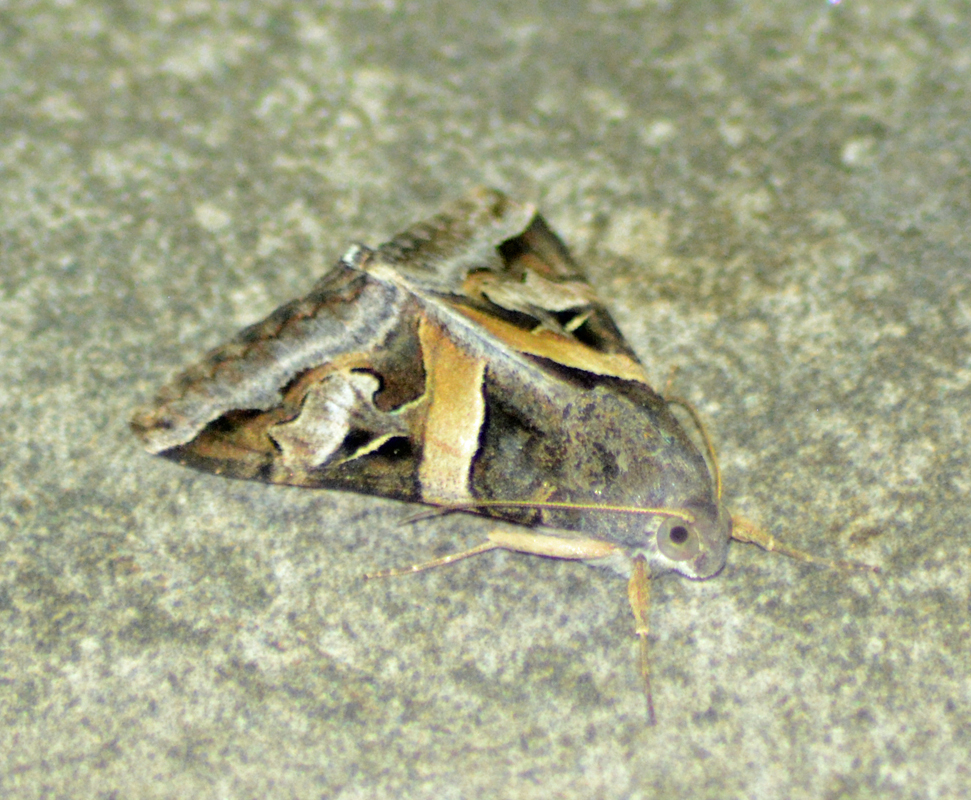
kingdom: Animalia
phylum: Arthropoda
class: Insecta
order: Lepidoptera
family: Erebidae
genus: Melipotis
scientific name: Melipotis indomita
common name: Moth
